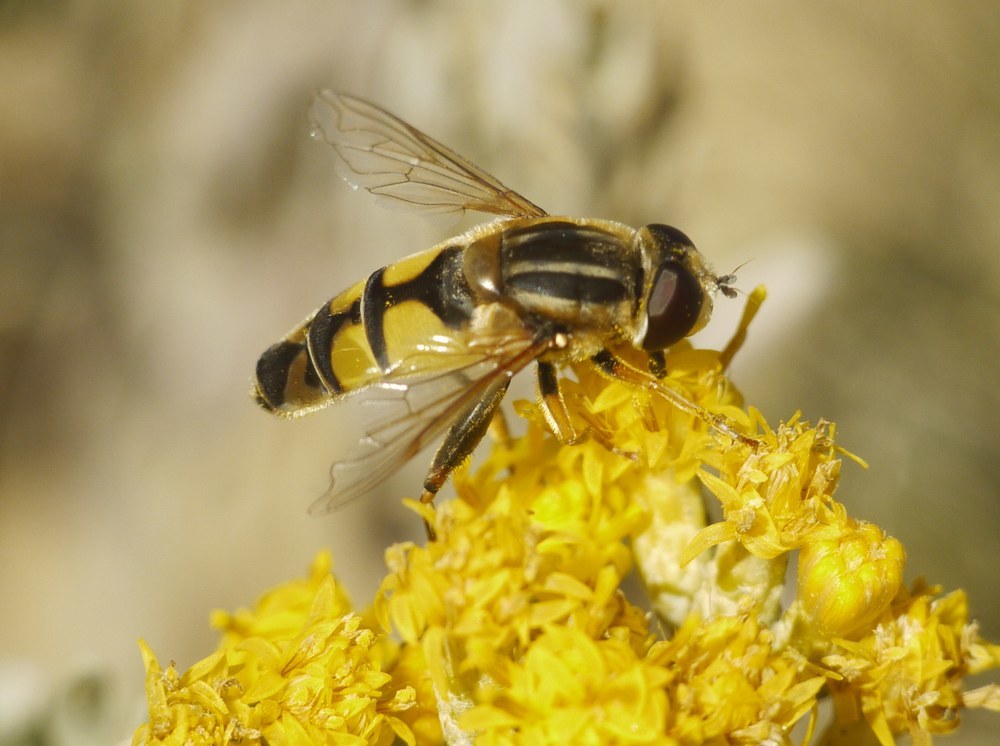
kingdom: Animalia
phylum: Arthropoda
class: Insecta
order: Diptera
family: Syrphidae
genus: Helophilus
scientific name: Helophilus trivittatus
